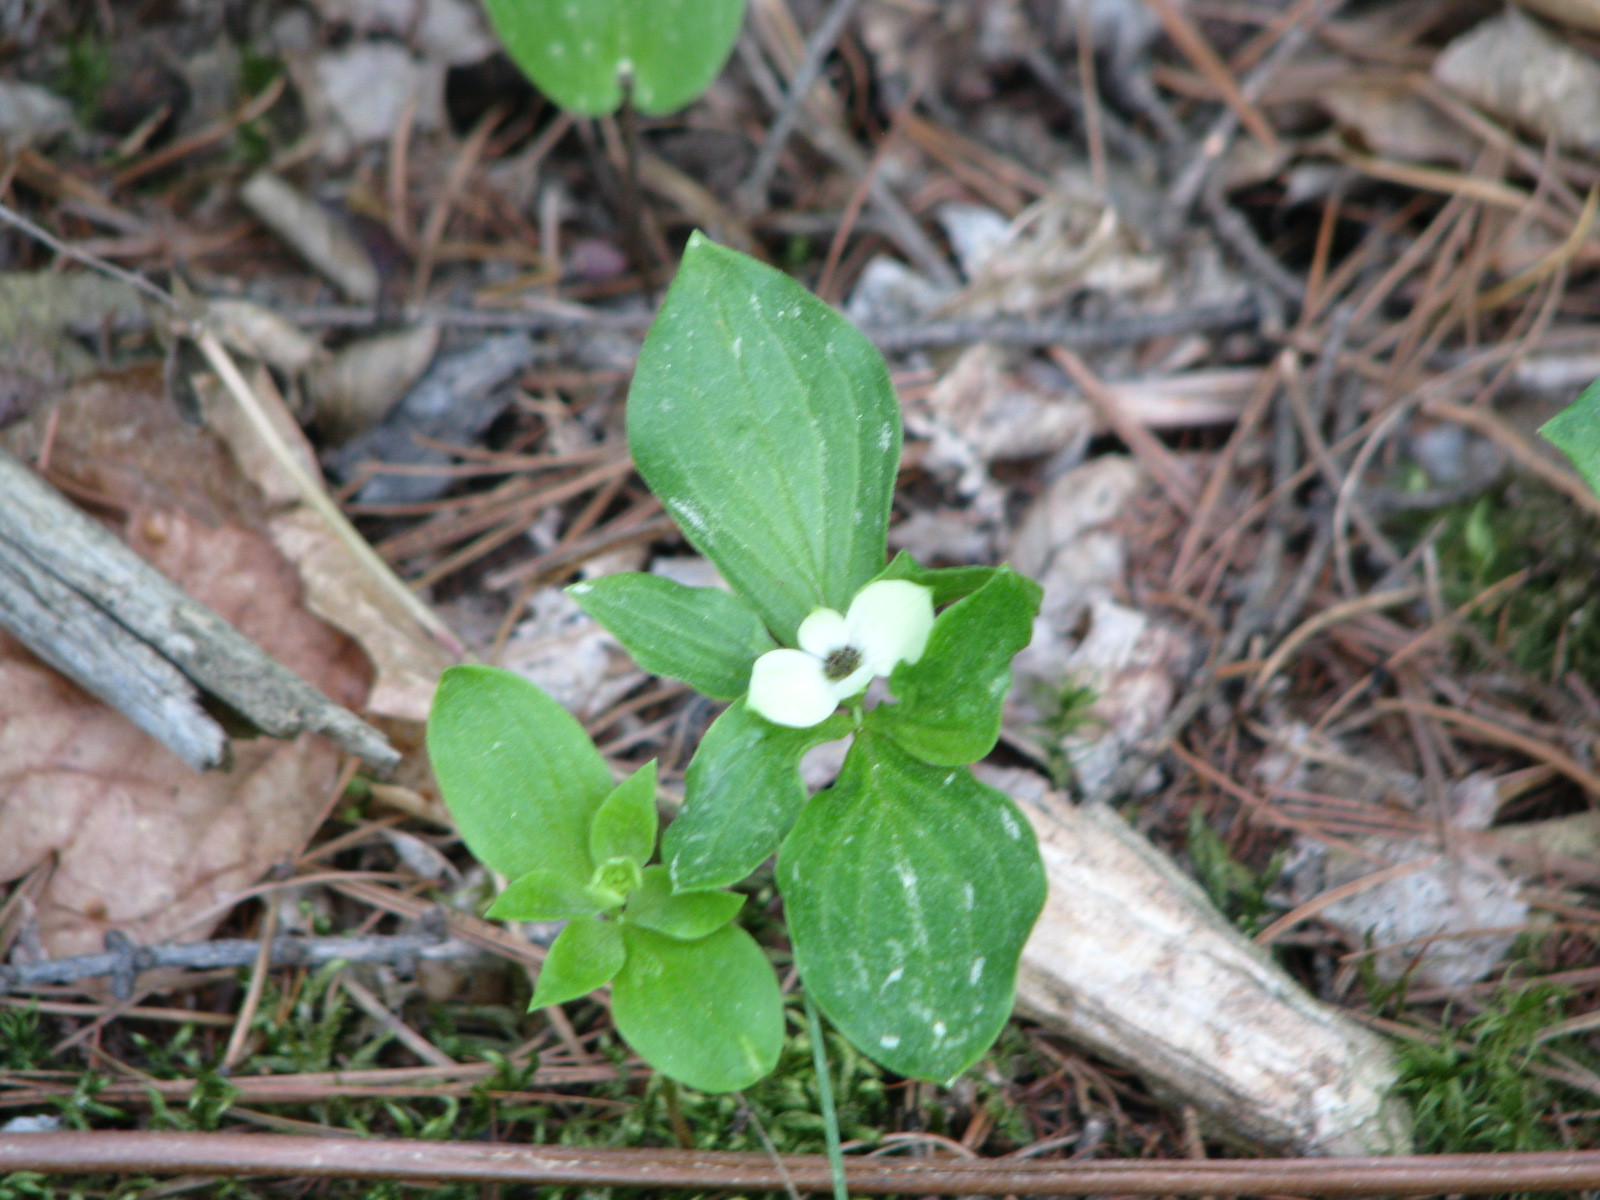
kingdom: Plantae
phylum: Tracheophyta
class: Magnoliopsida
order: Cornales
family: Cornaceae
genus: Cornus
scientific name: Cornus canadensis
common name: Creeping dogwood
